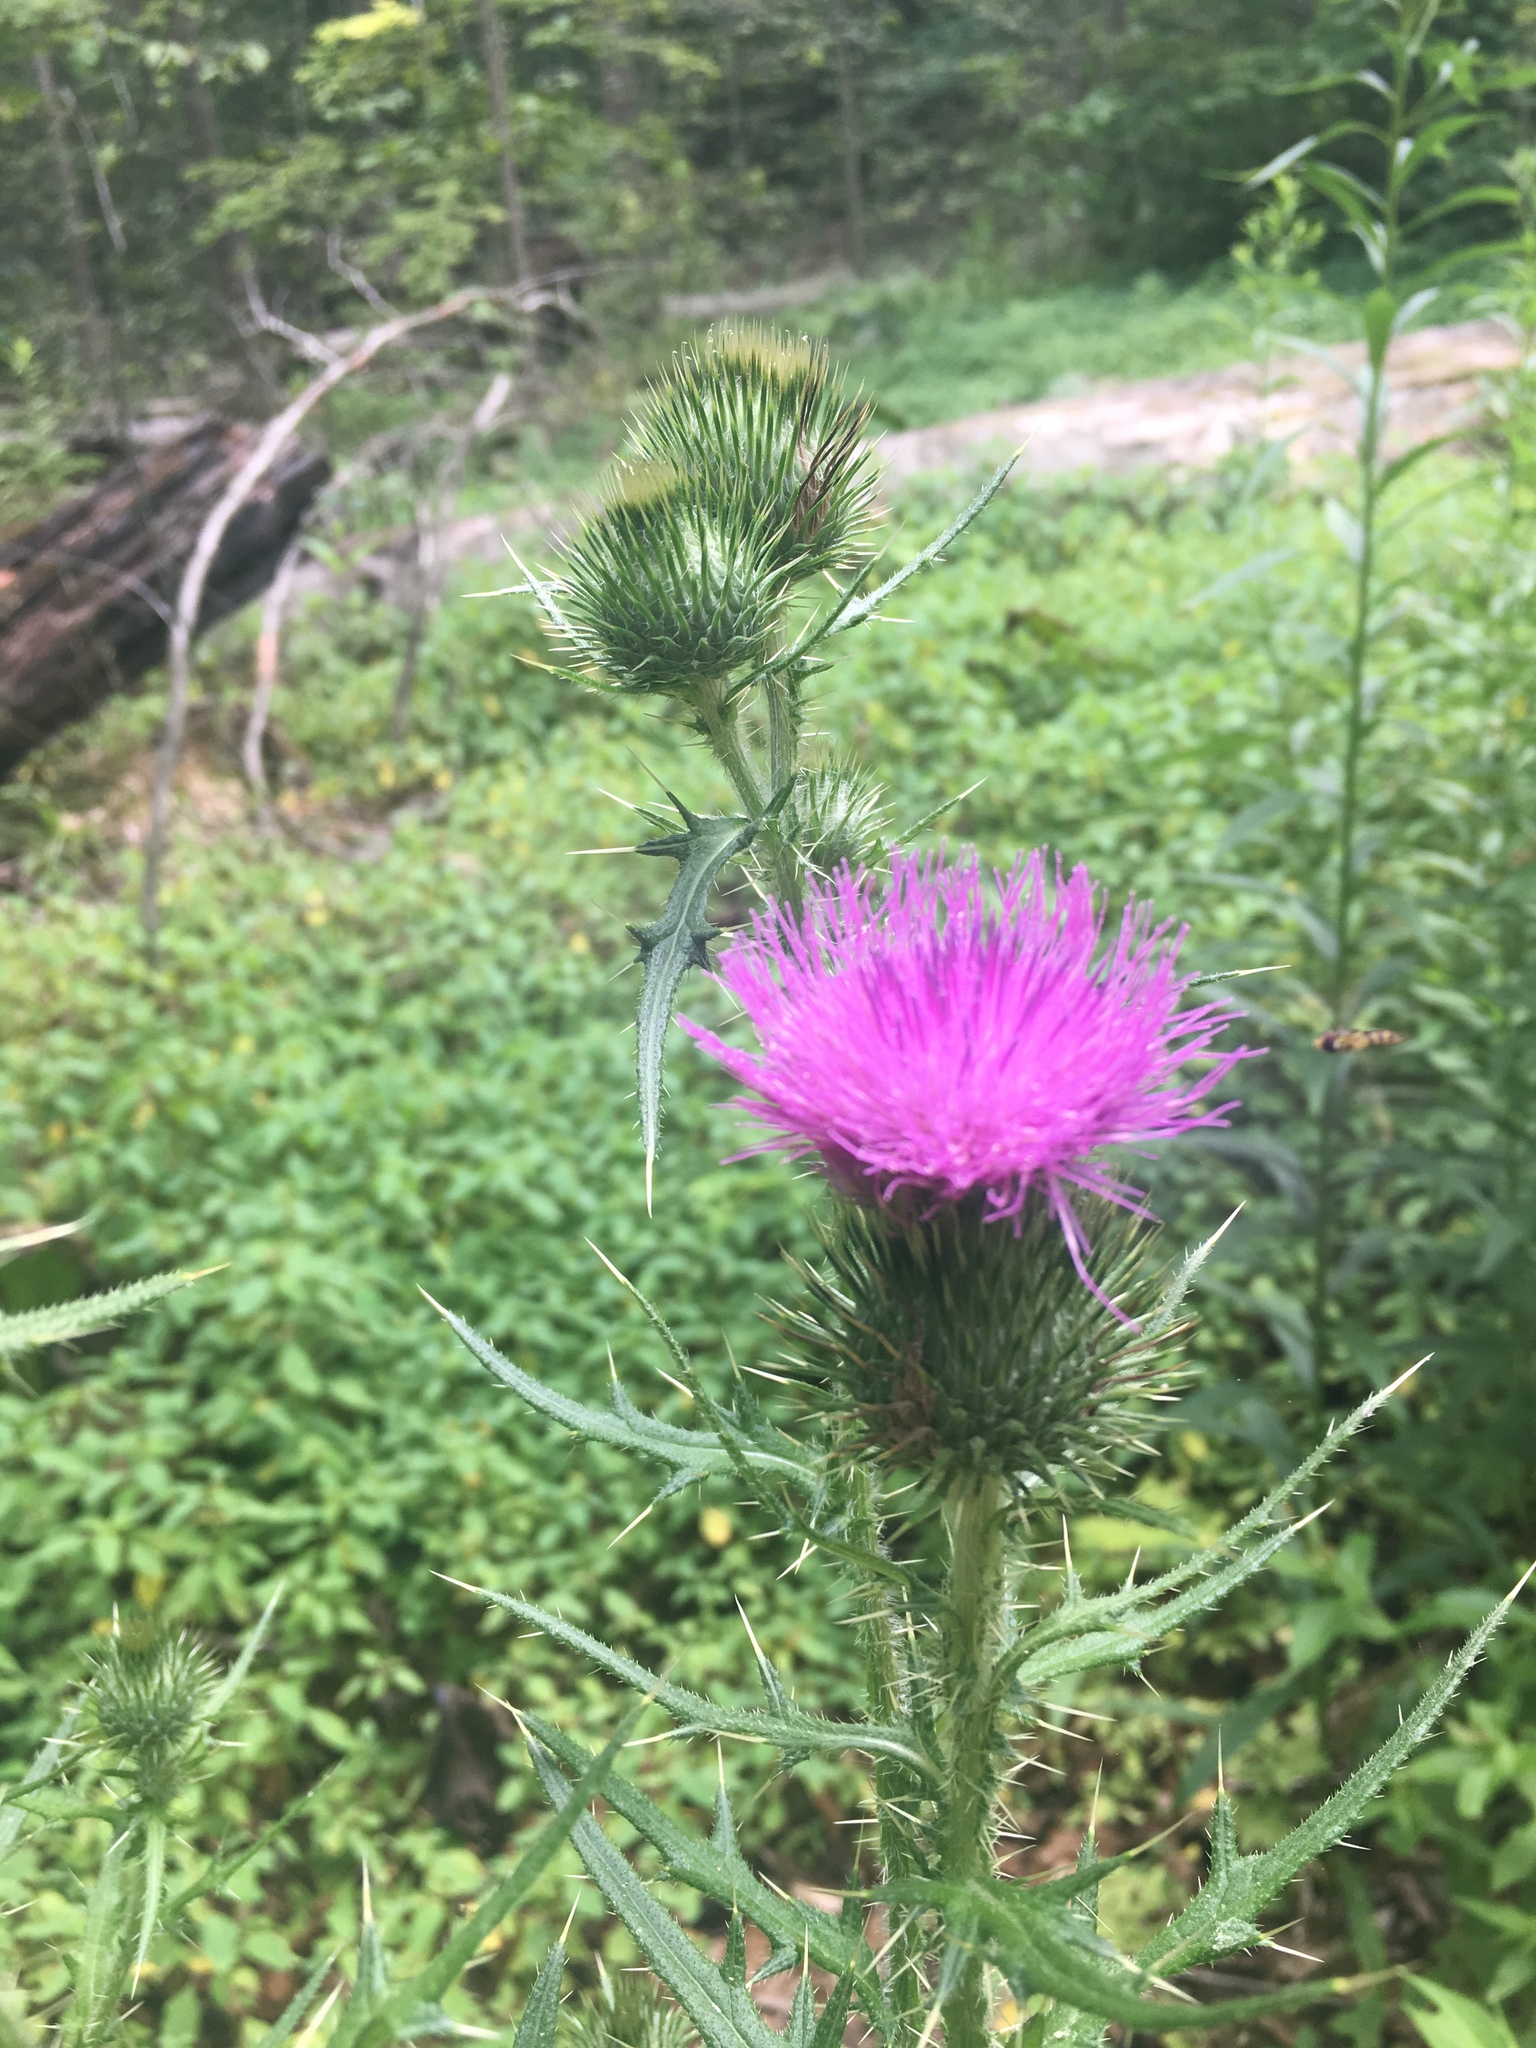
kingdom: Plantae
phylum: Tracheophyta
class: Magnoliopsida
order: Asterales
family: Asteraceae
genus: Cirsium
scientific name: Cirsium vulgare
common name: Bull thistle
